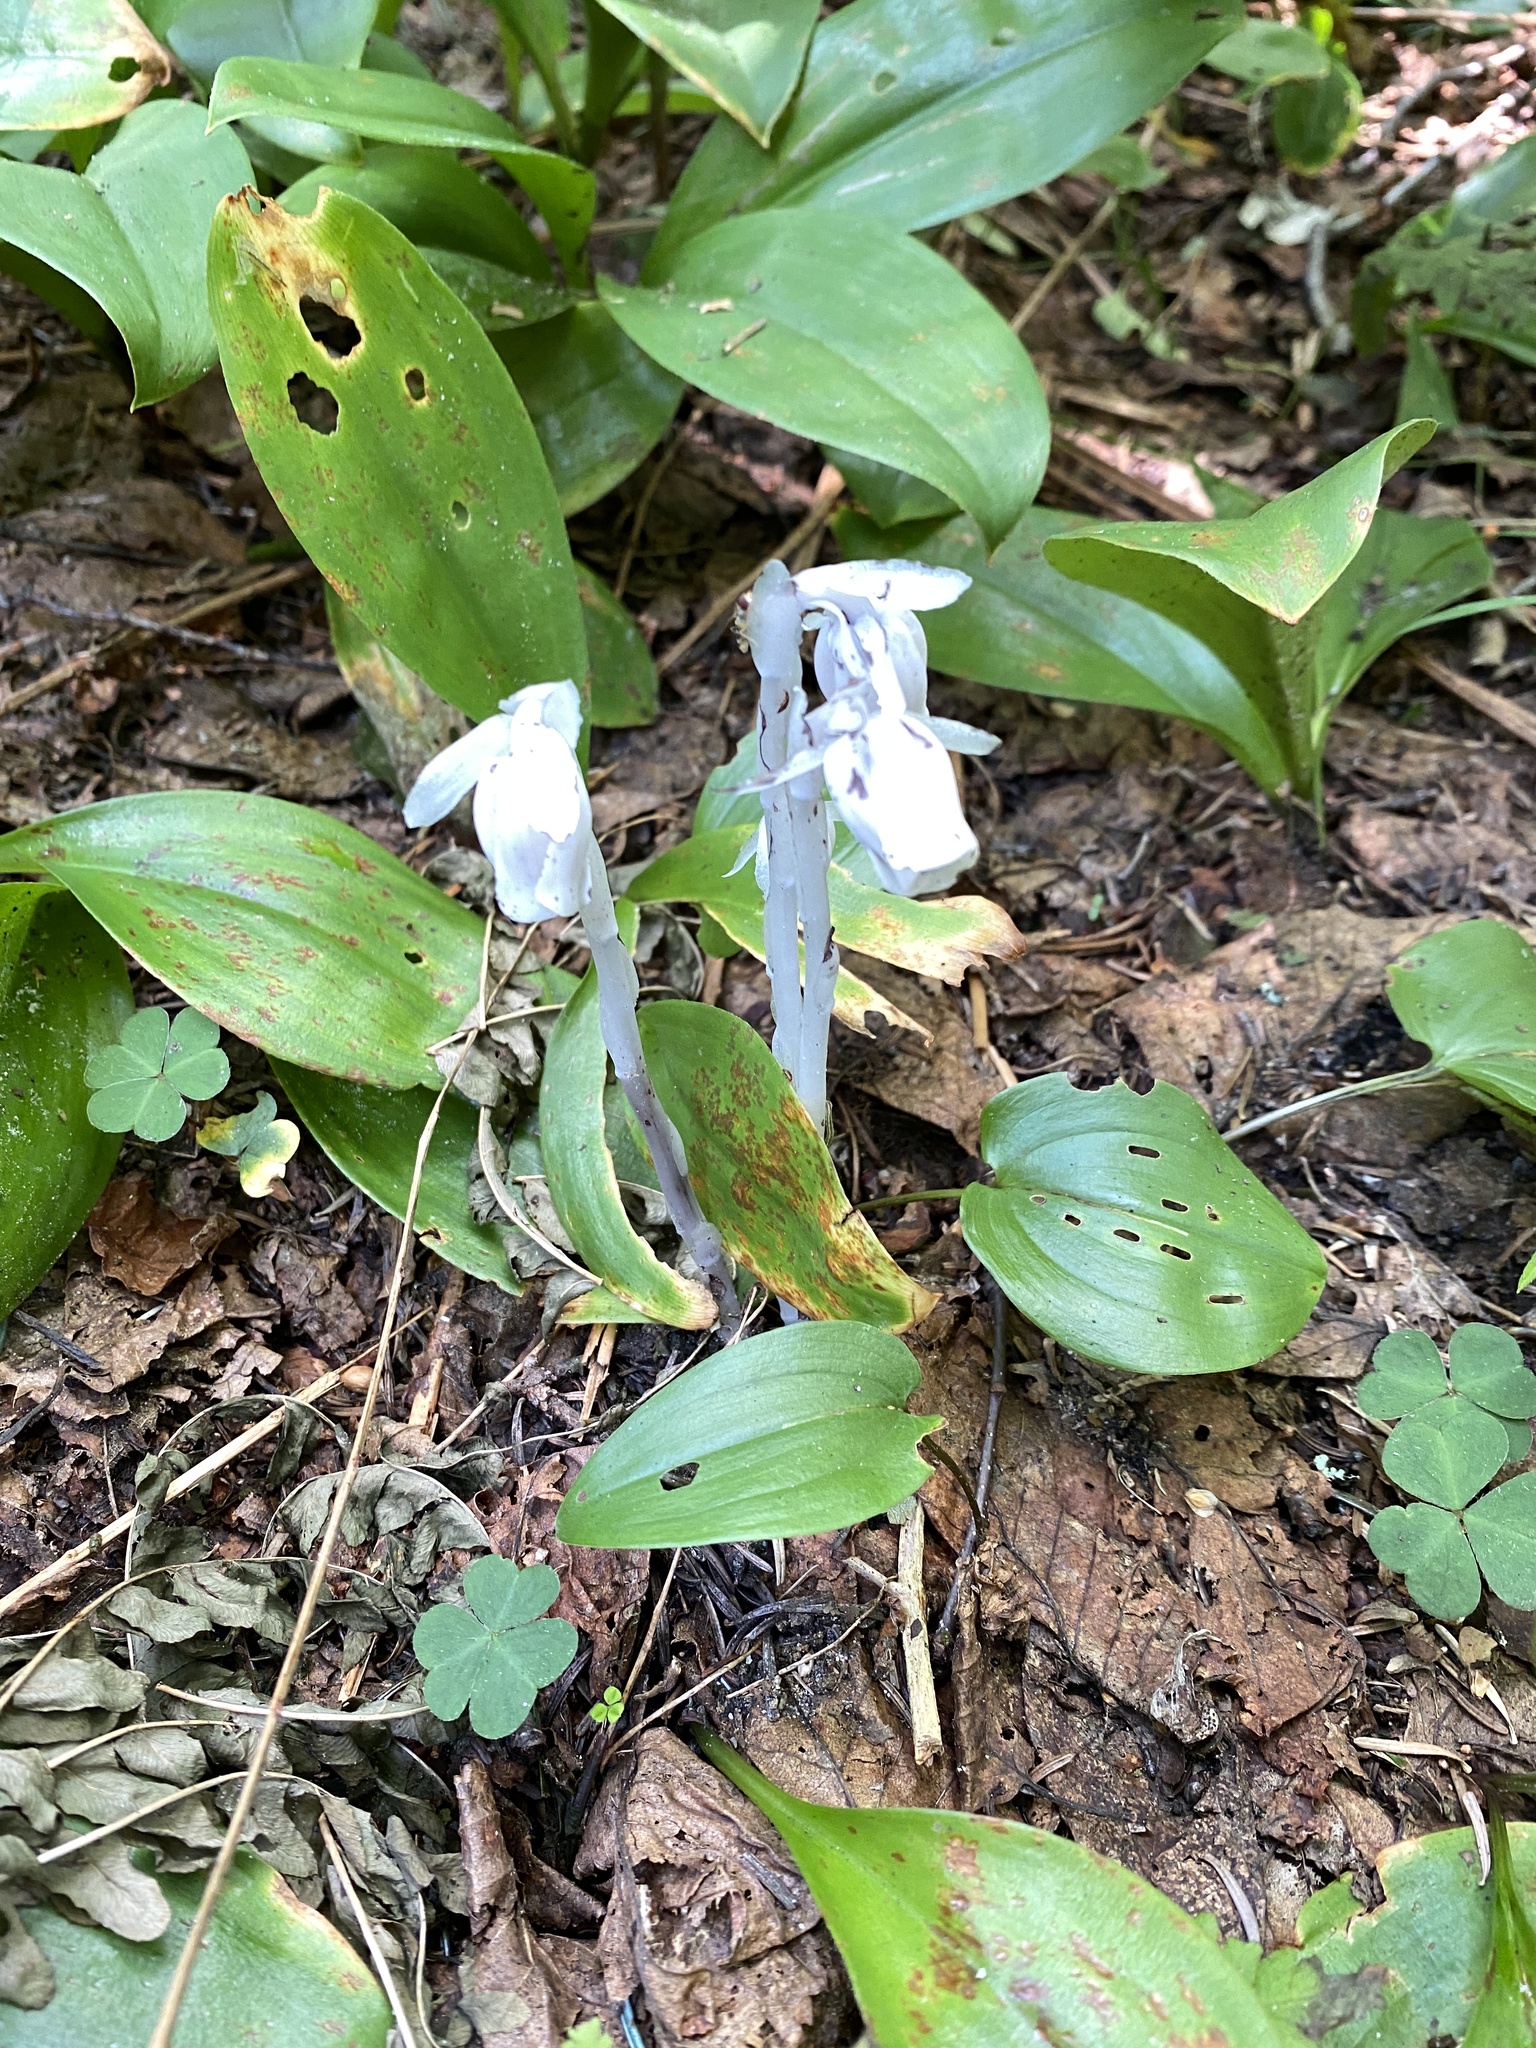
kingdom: Plantae
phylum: Tracheophyta
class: Magnoliopsida
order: Ericales
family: Ericaceae
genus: Monotropa
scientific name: Monotropa uniflora
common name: Convulsion root
